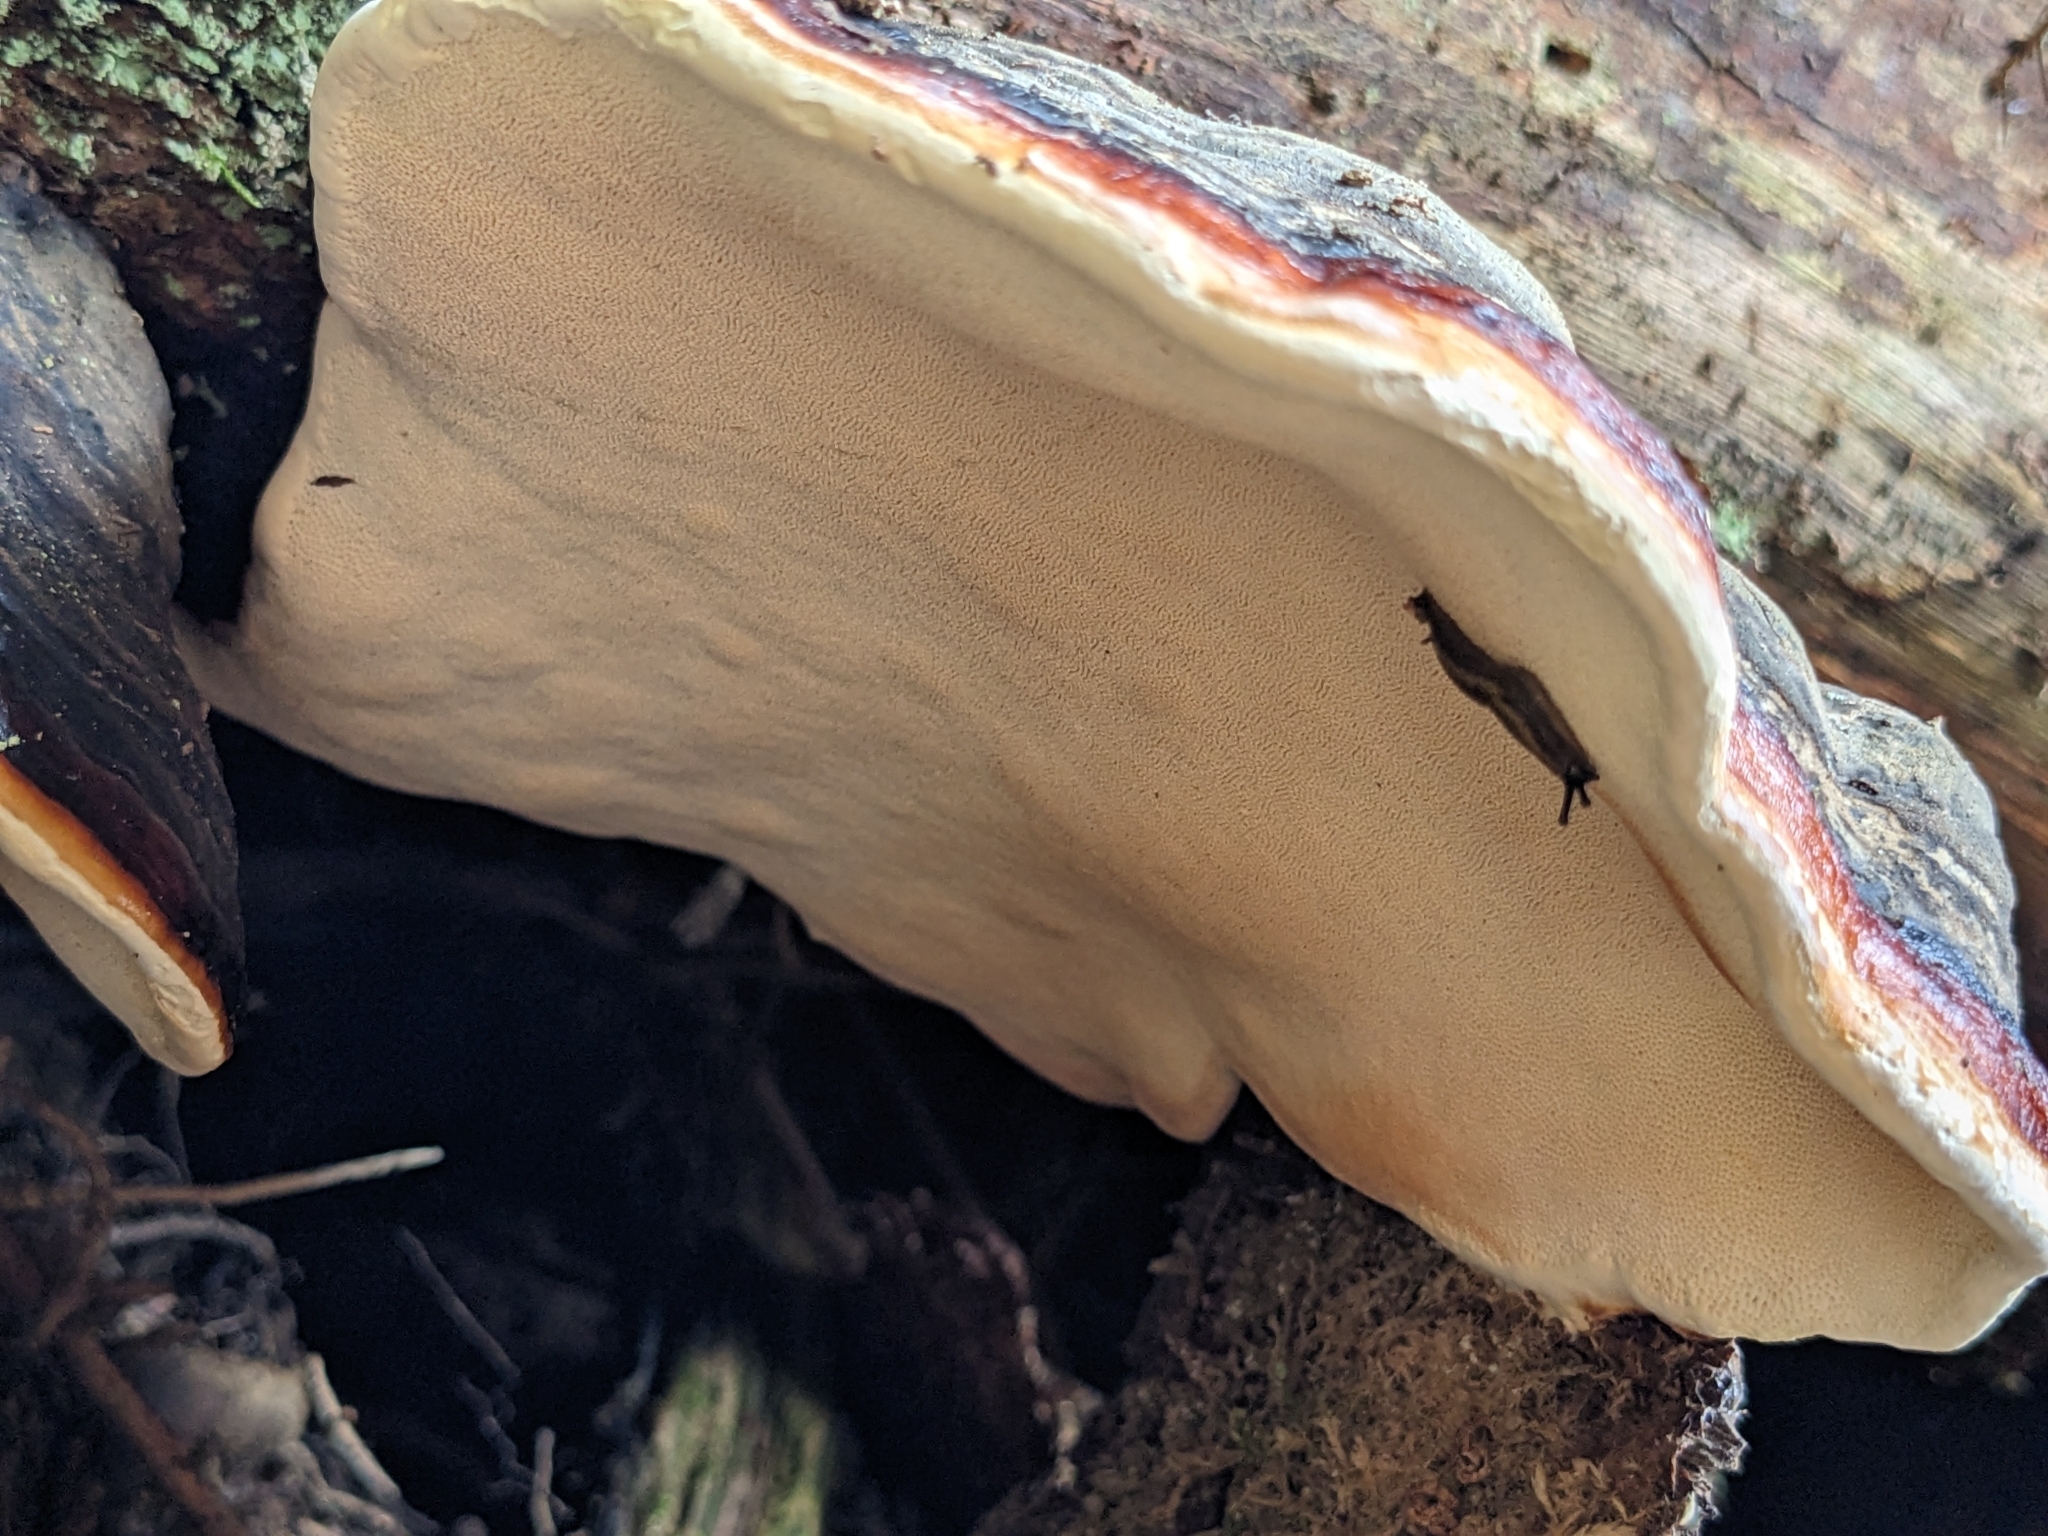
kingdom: Fungi
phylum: Basidiomycota
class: Agaricomycetes
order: Polyporales
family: Fomitopsidaceae
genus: Fomitopsis
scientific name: Fomitopsis pinicola
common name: Red-belted bracket
